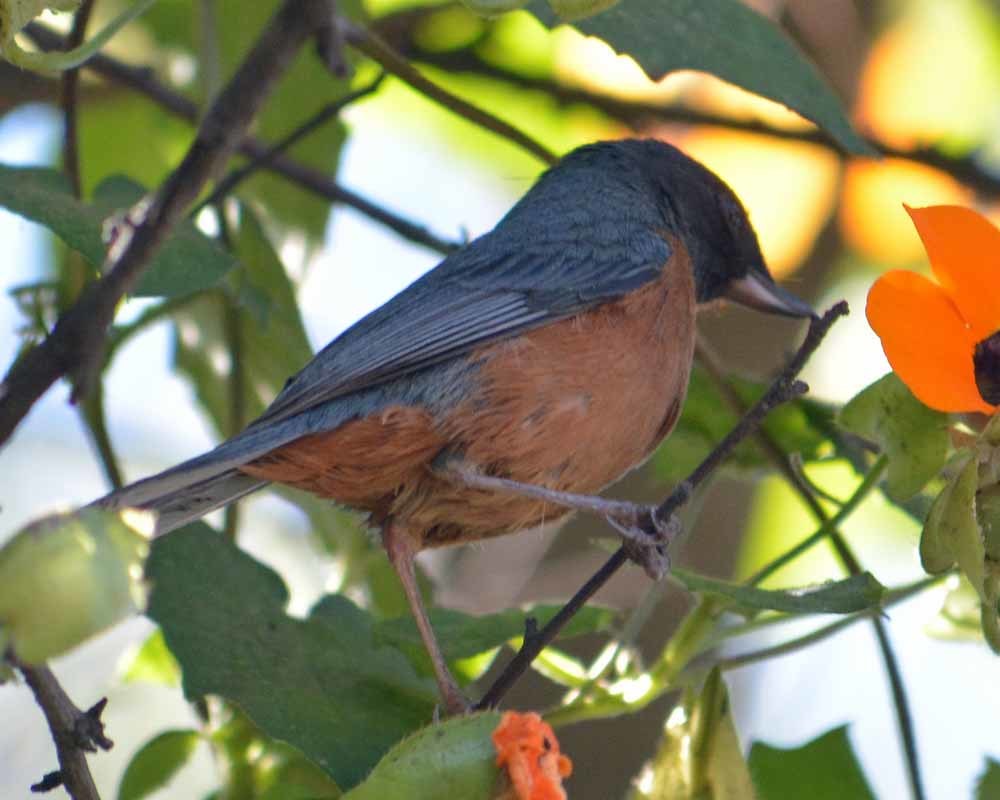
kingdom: Animalia
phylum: Chordata
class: Aves
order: Passeriformes
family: Thraupidae
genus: Diglossa
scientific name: Diglossa baritula
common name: Cinnamon-bellied flowerpiercer
